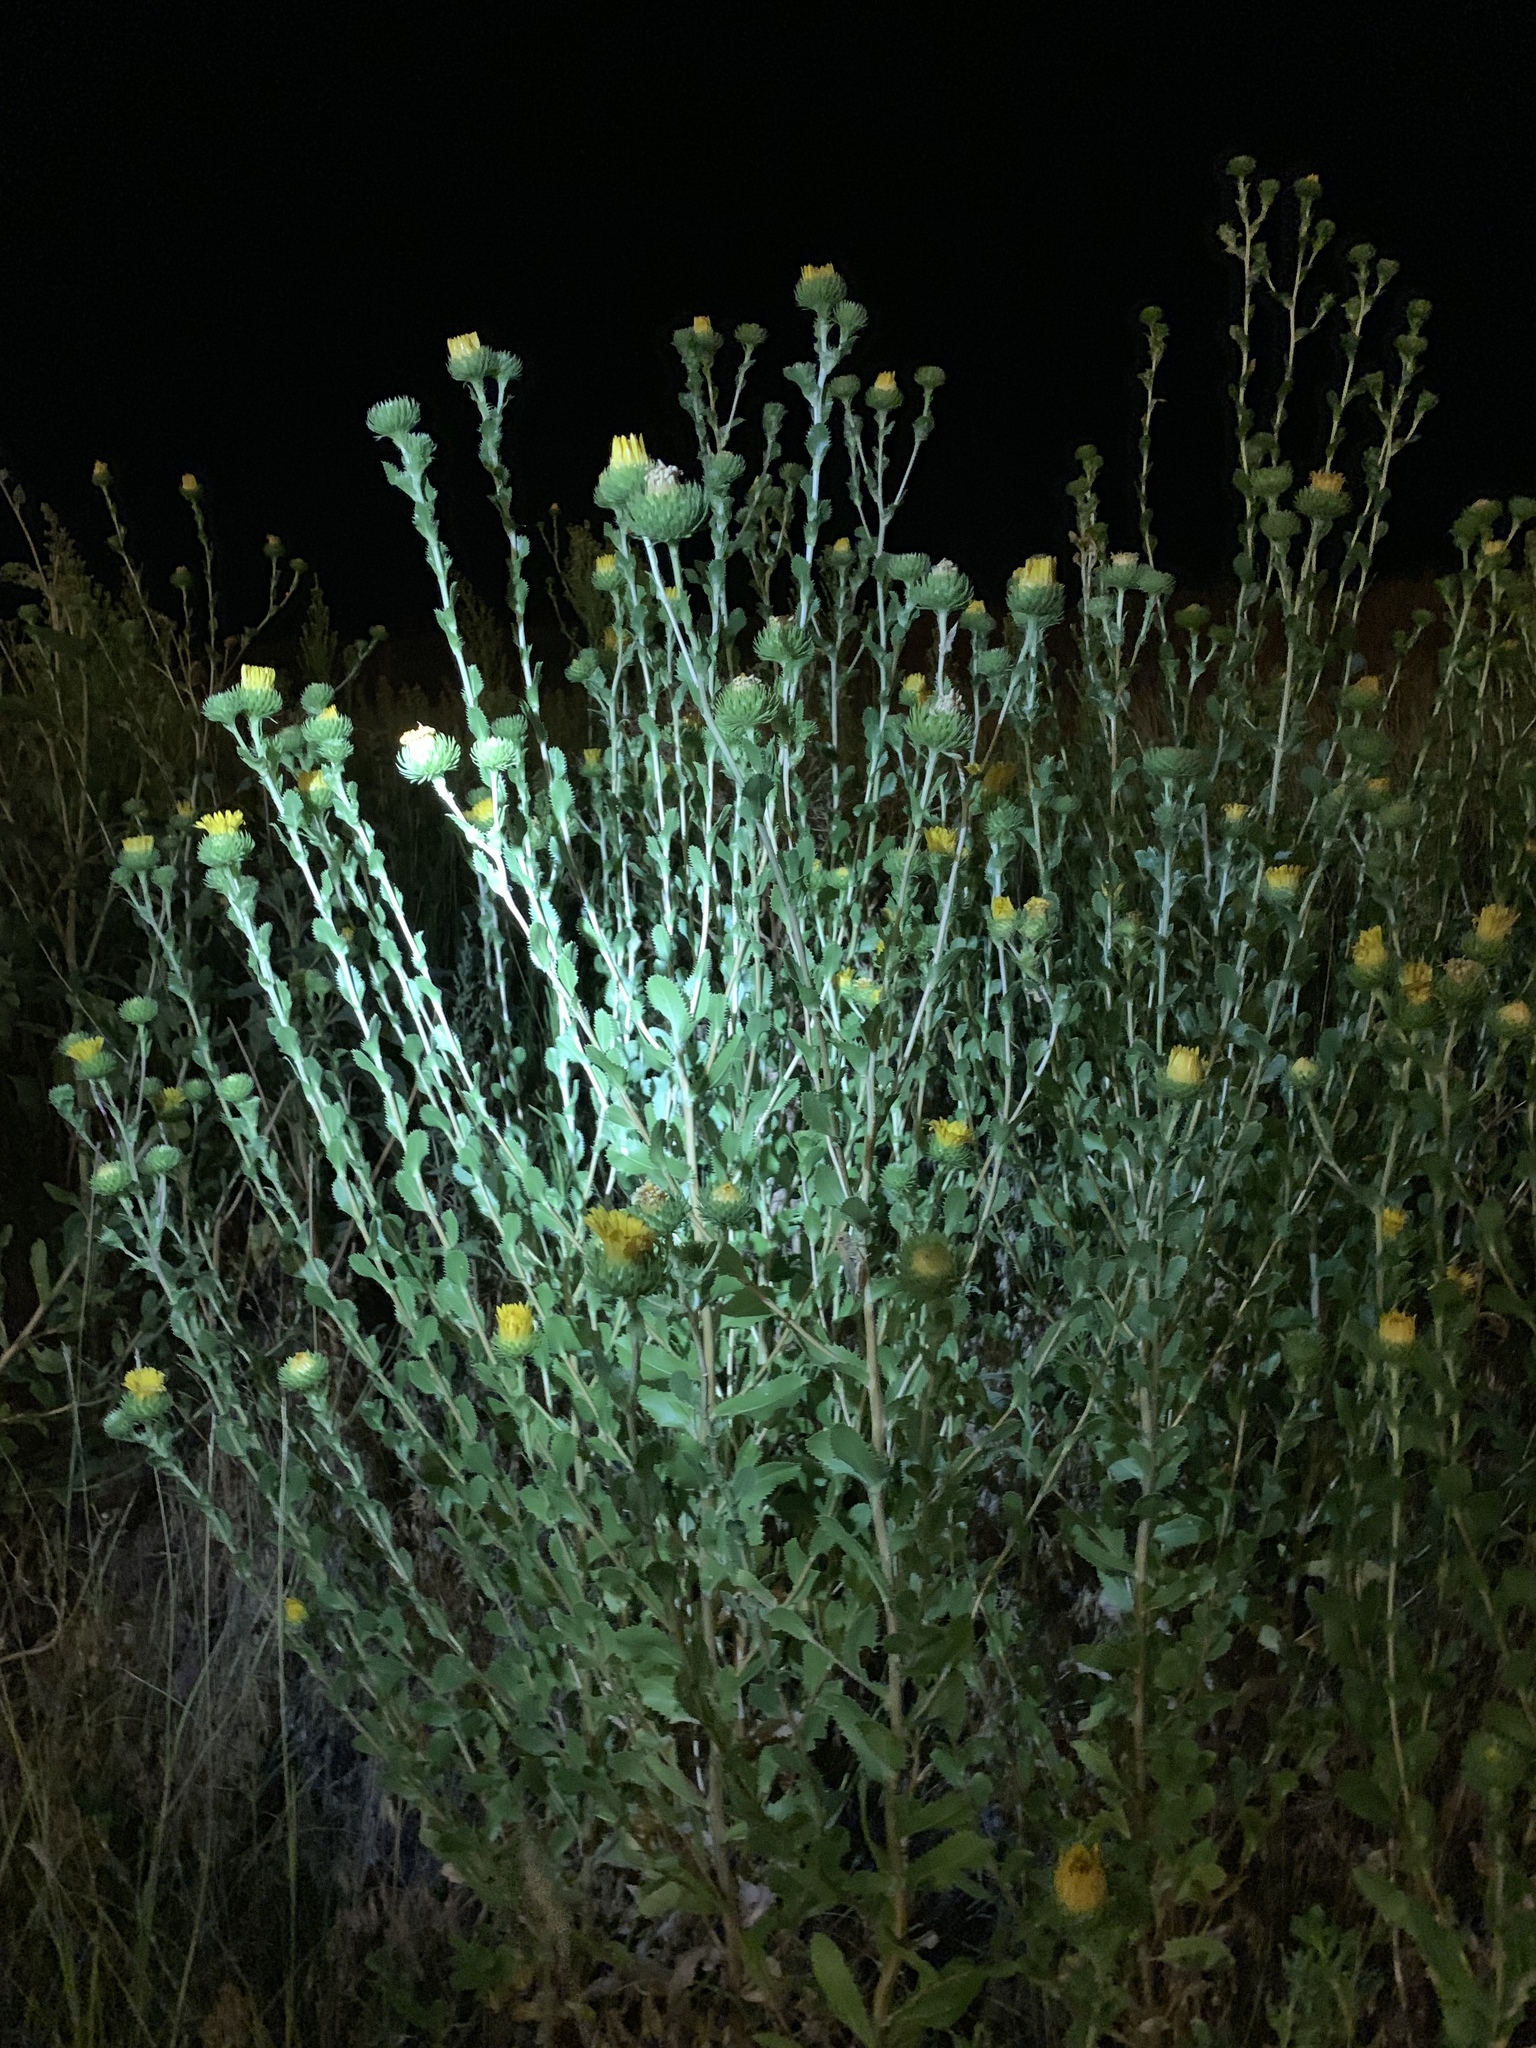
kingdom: Plantae
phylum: Tracheophyta
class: Magnoliopsida
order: Asterales
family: Asteraceae
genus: Grindelia
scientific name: Grindelia ciliata
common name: Goldenweed
